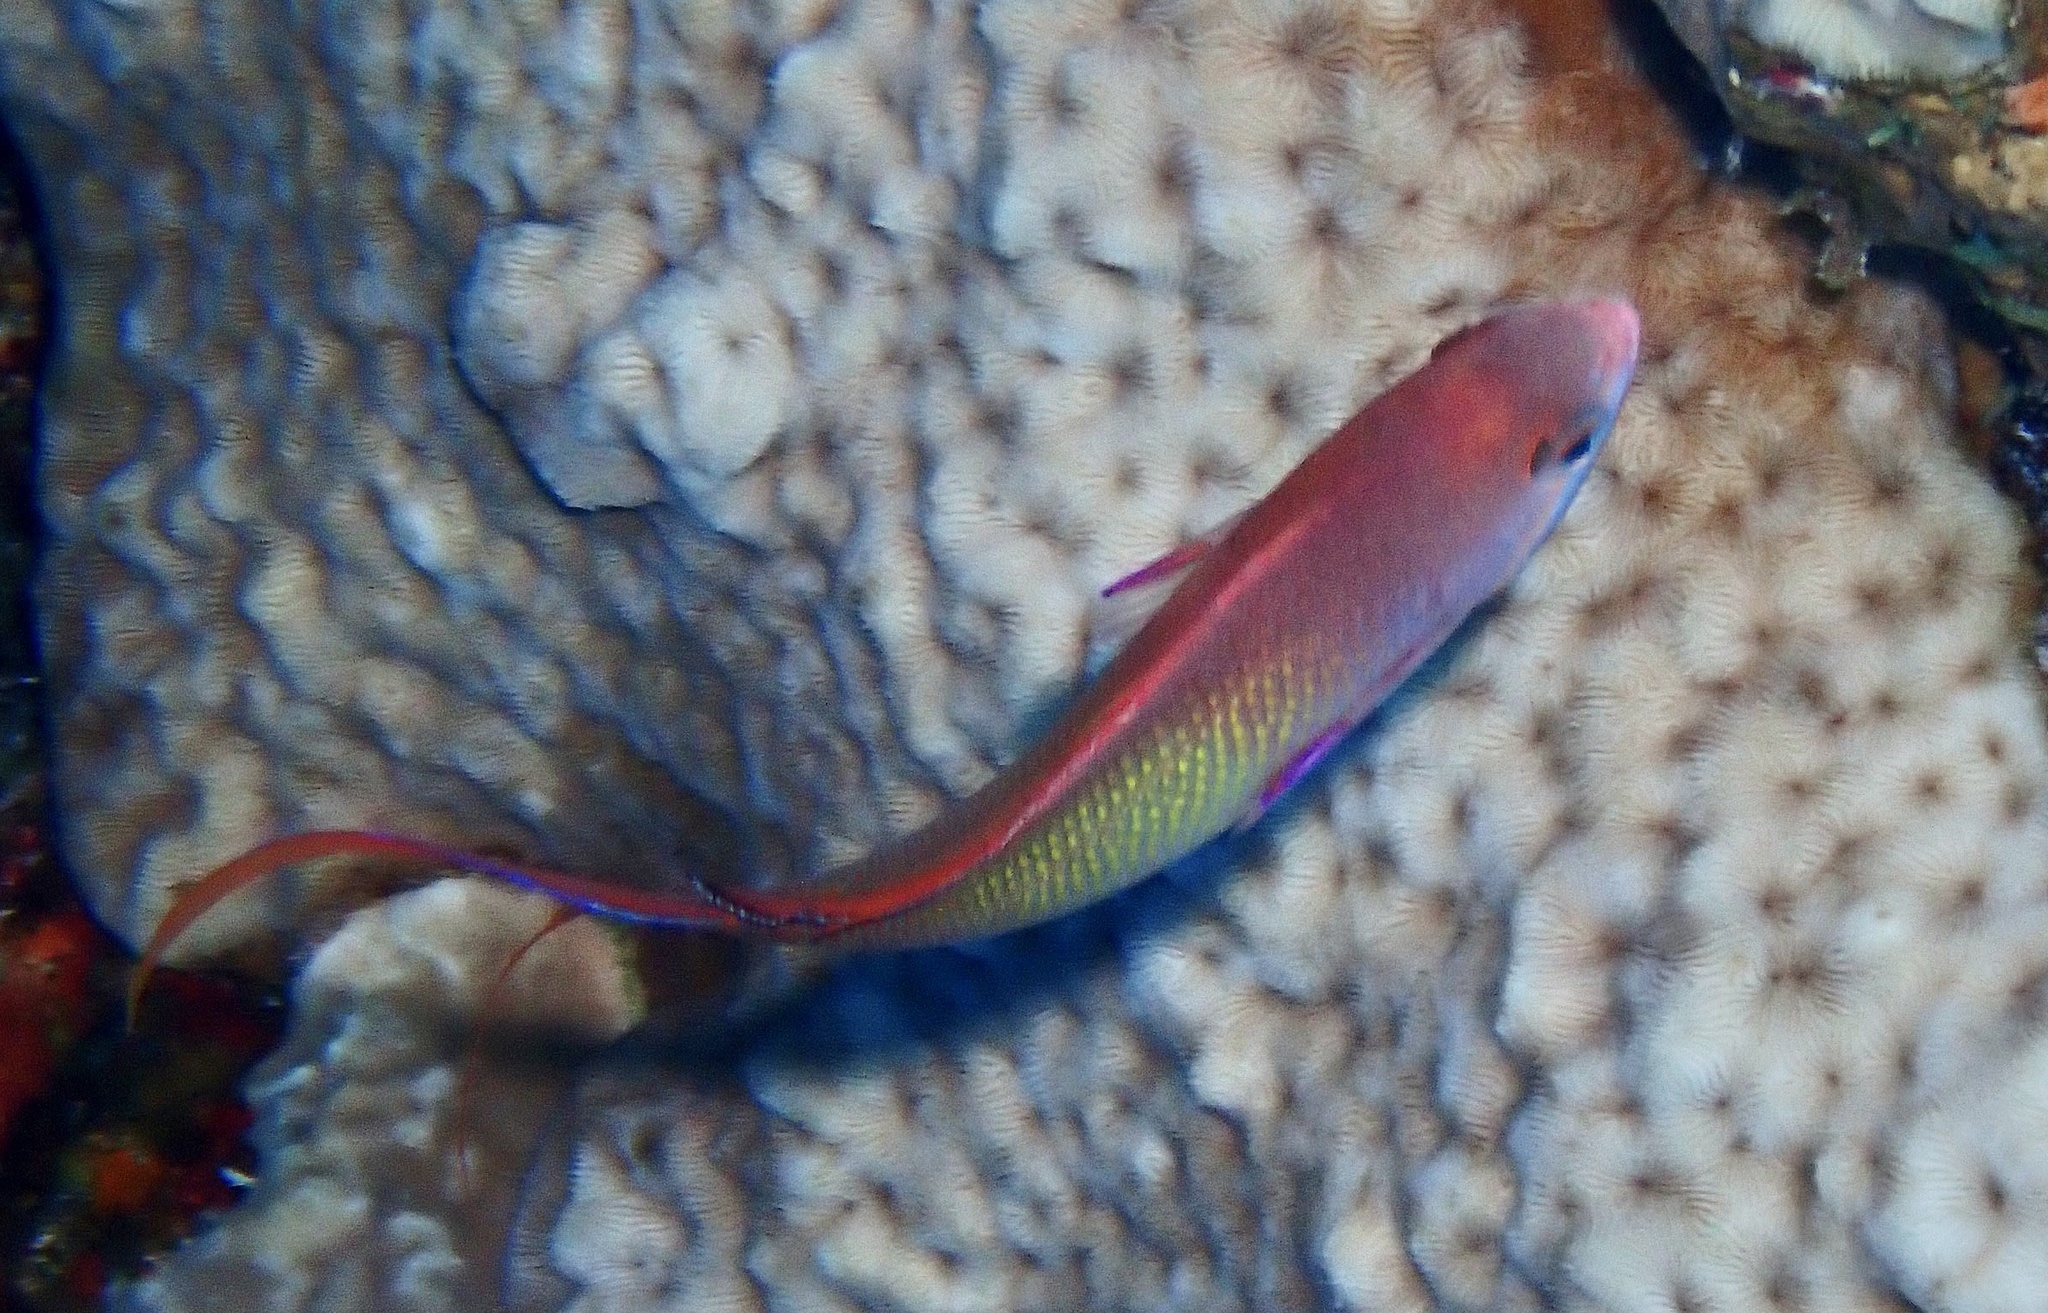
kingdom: Animalia
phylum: Chordata
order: Perciformes
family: Serranidae
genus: Pseudanthias
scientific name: Pseudanthias squamipinnis
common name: Scalefin anthias
